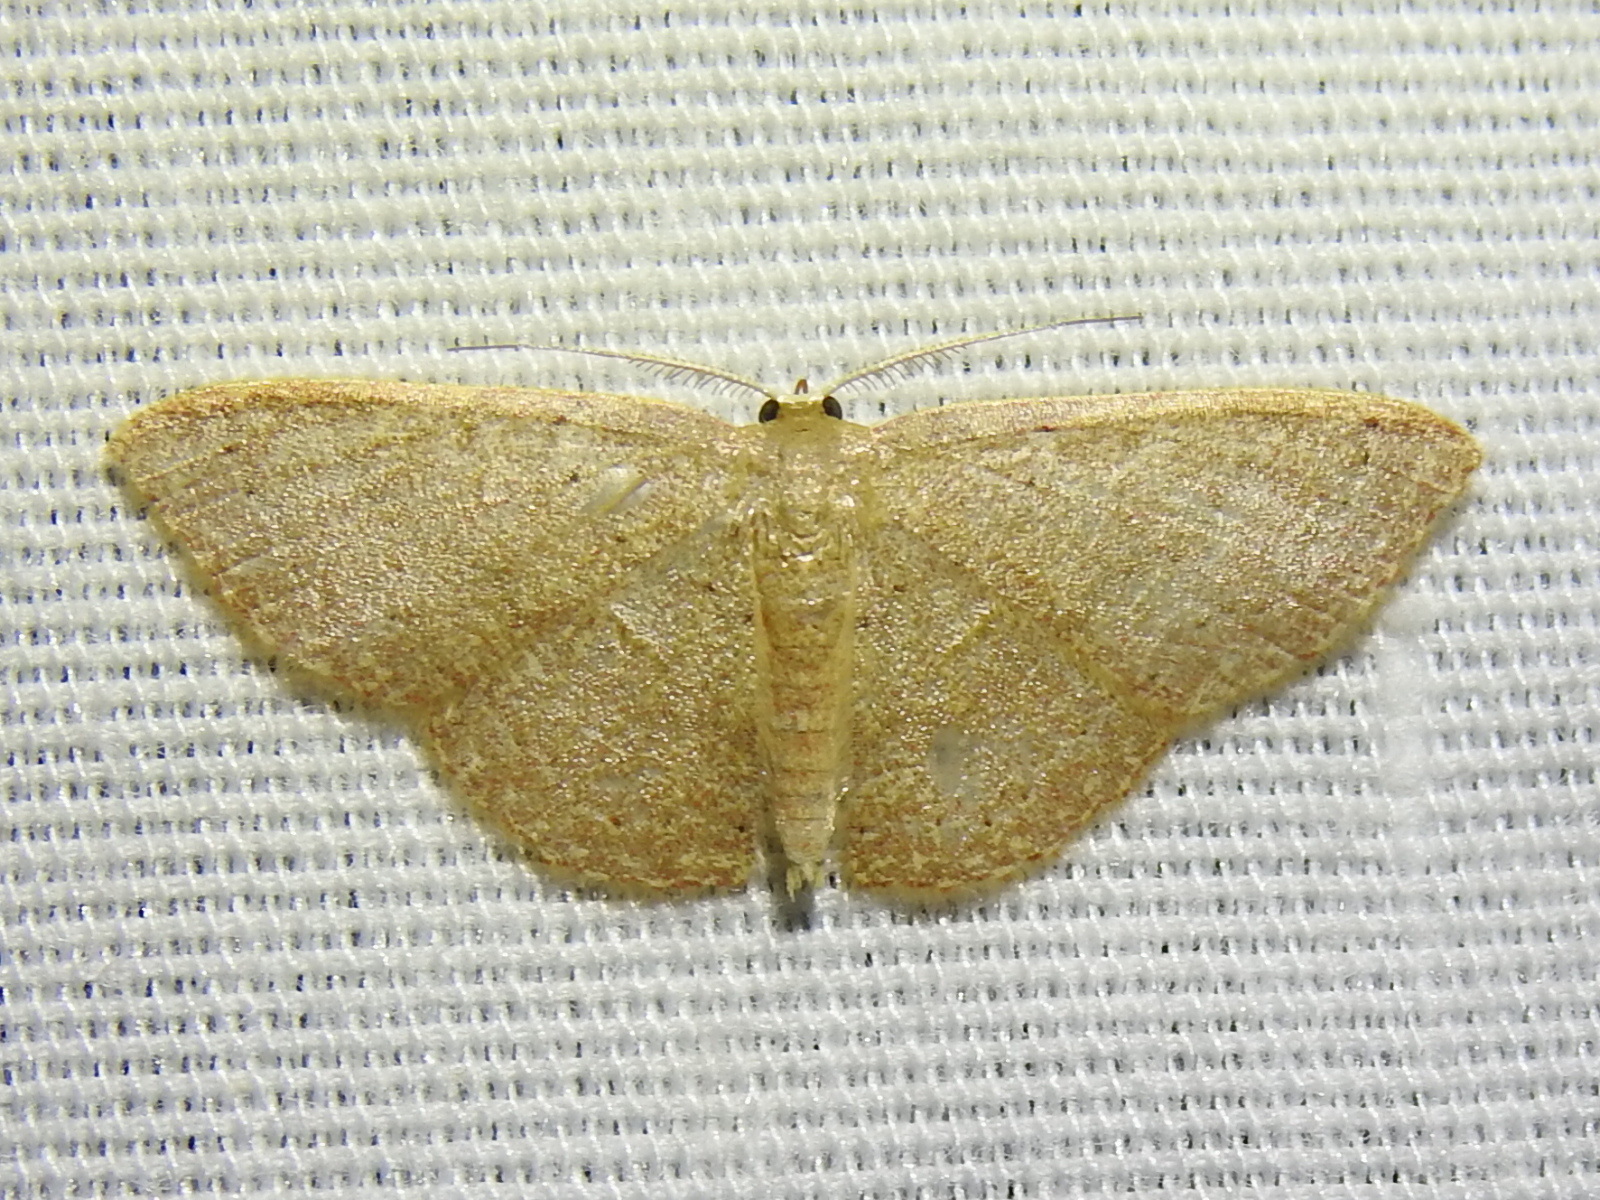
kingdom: Animalia
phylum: Arthropoda
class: Insecta
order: Lepidoptera
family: Geometridae
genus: Pleuroprucha
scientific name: Pleuroprucha insulsaria
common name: Common tan wave
